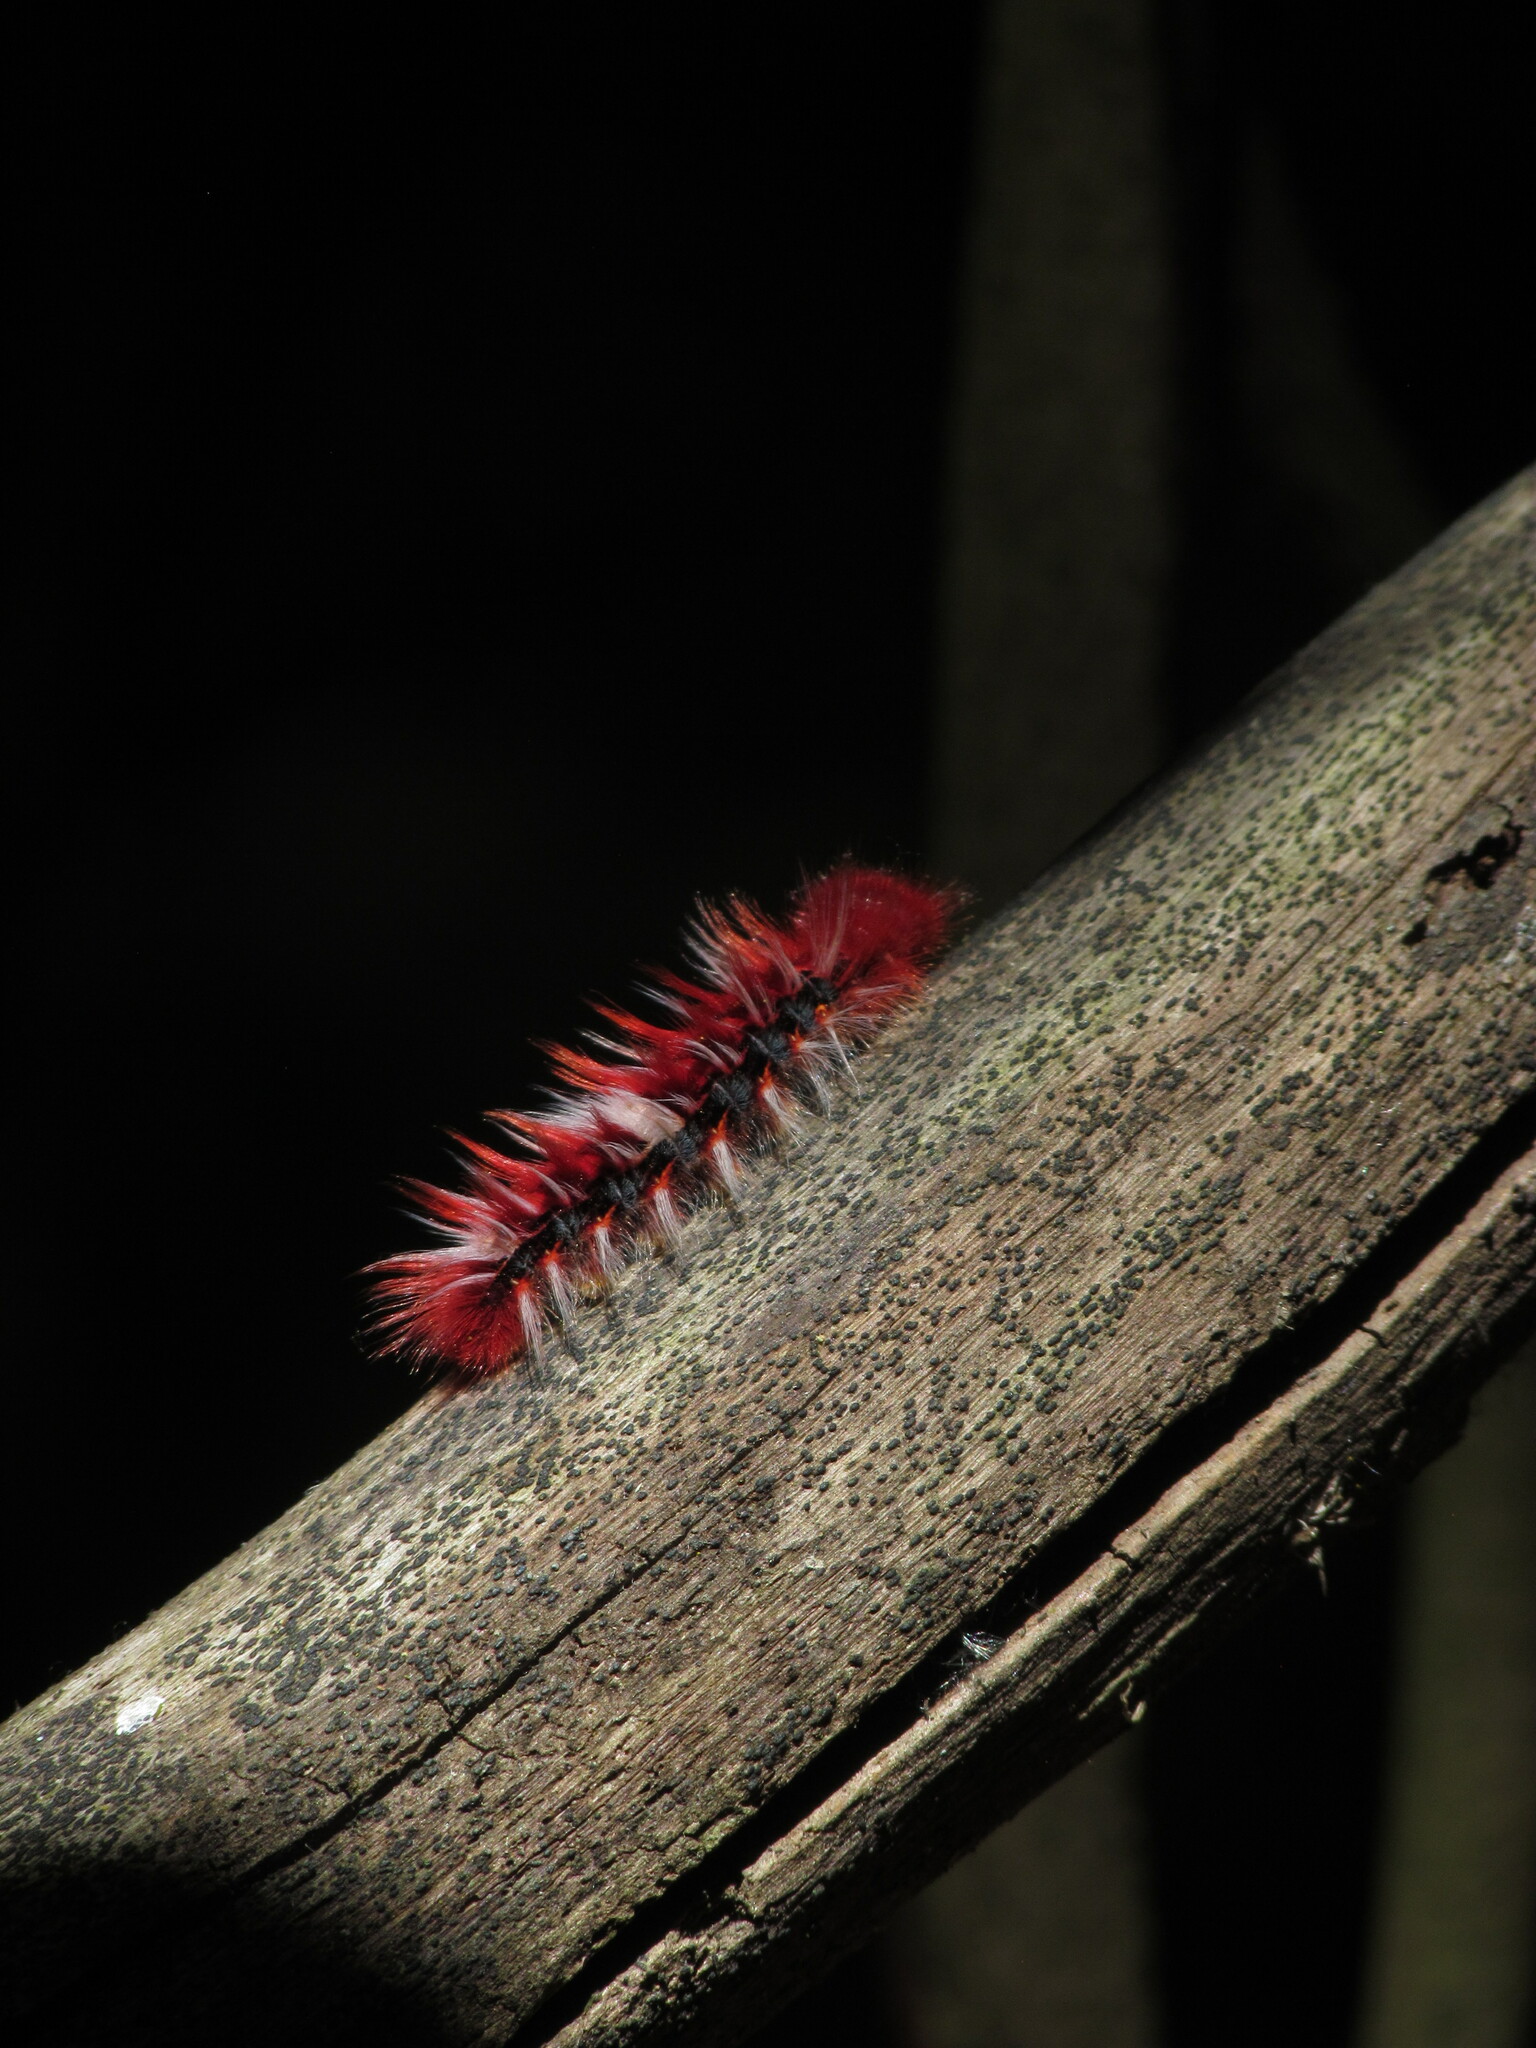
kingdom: Animalia
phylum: Arthropoda
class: Insecta
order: Lepidoptera
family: Nymphalidae
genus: Morpho
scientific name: Morpho epistrophus
